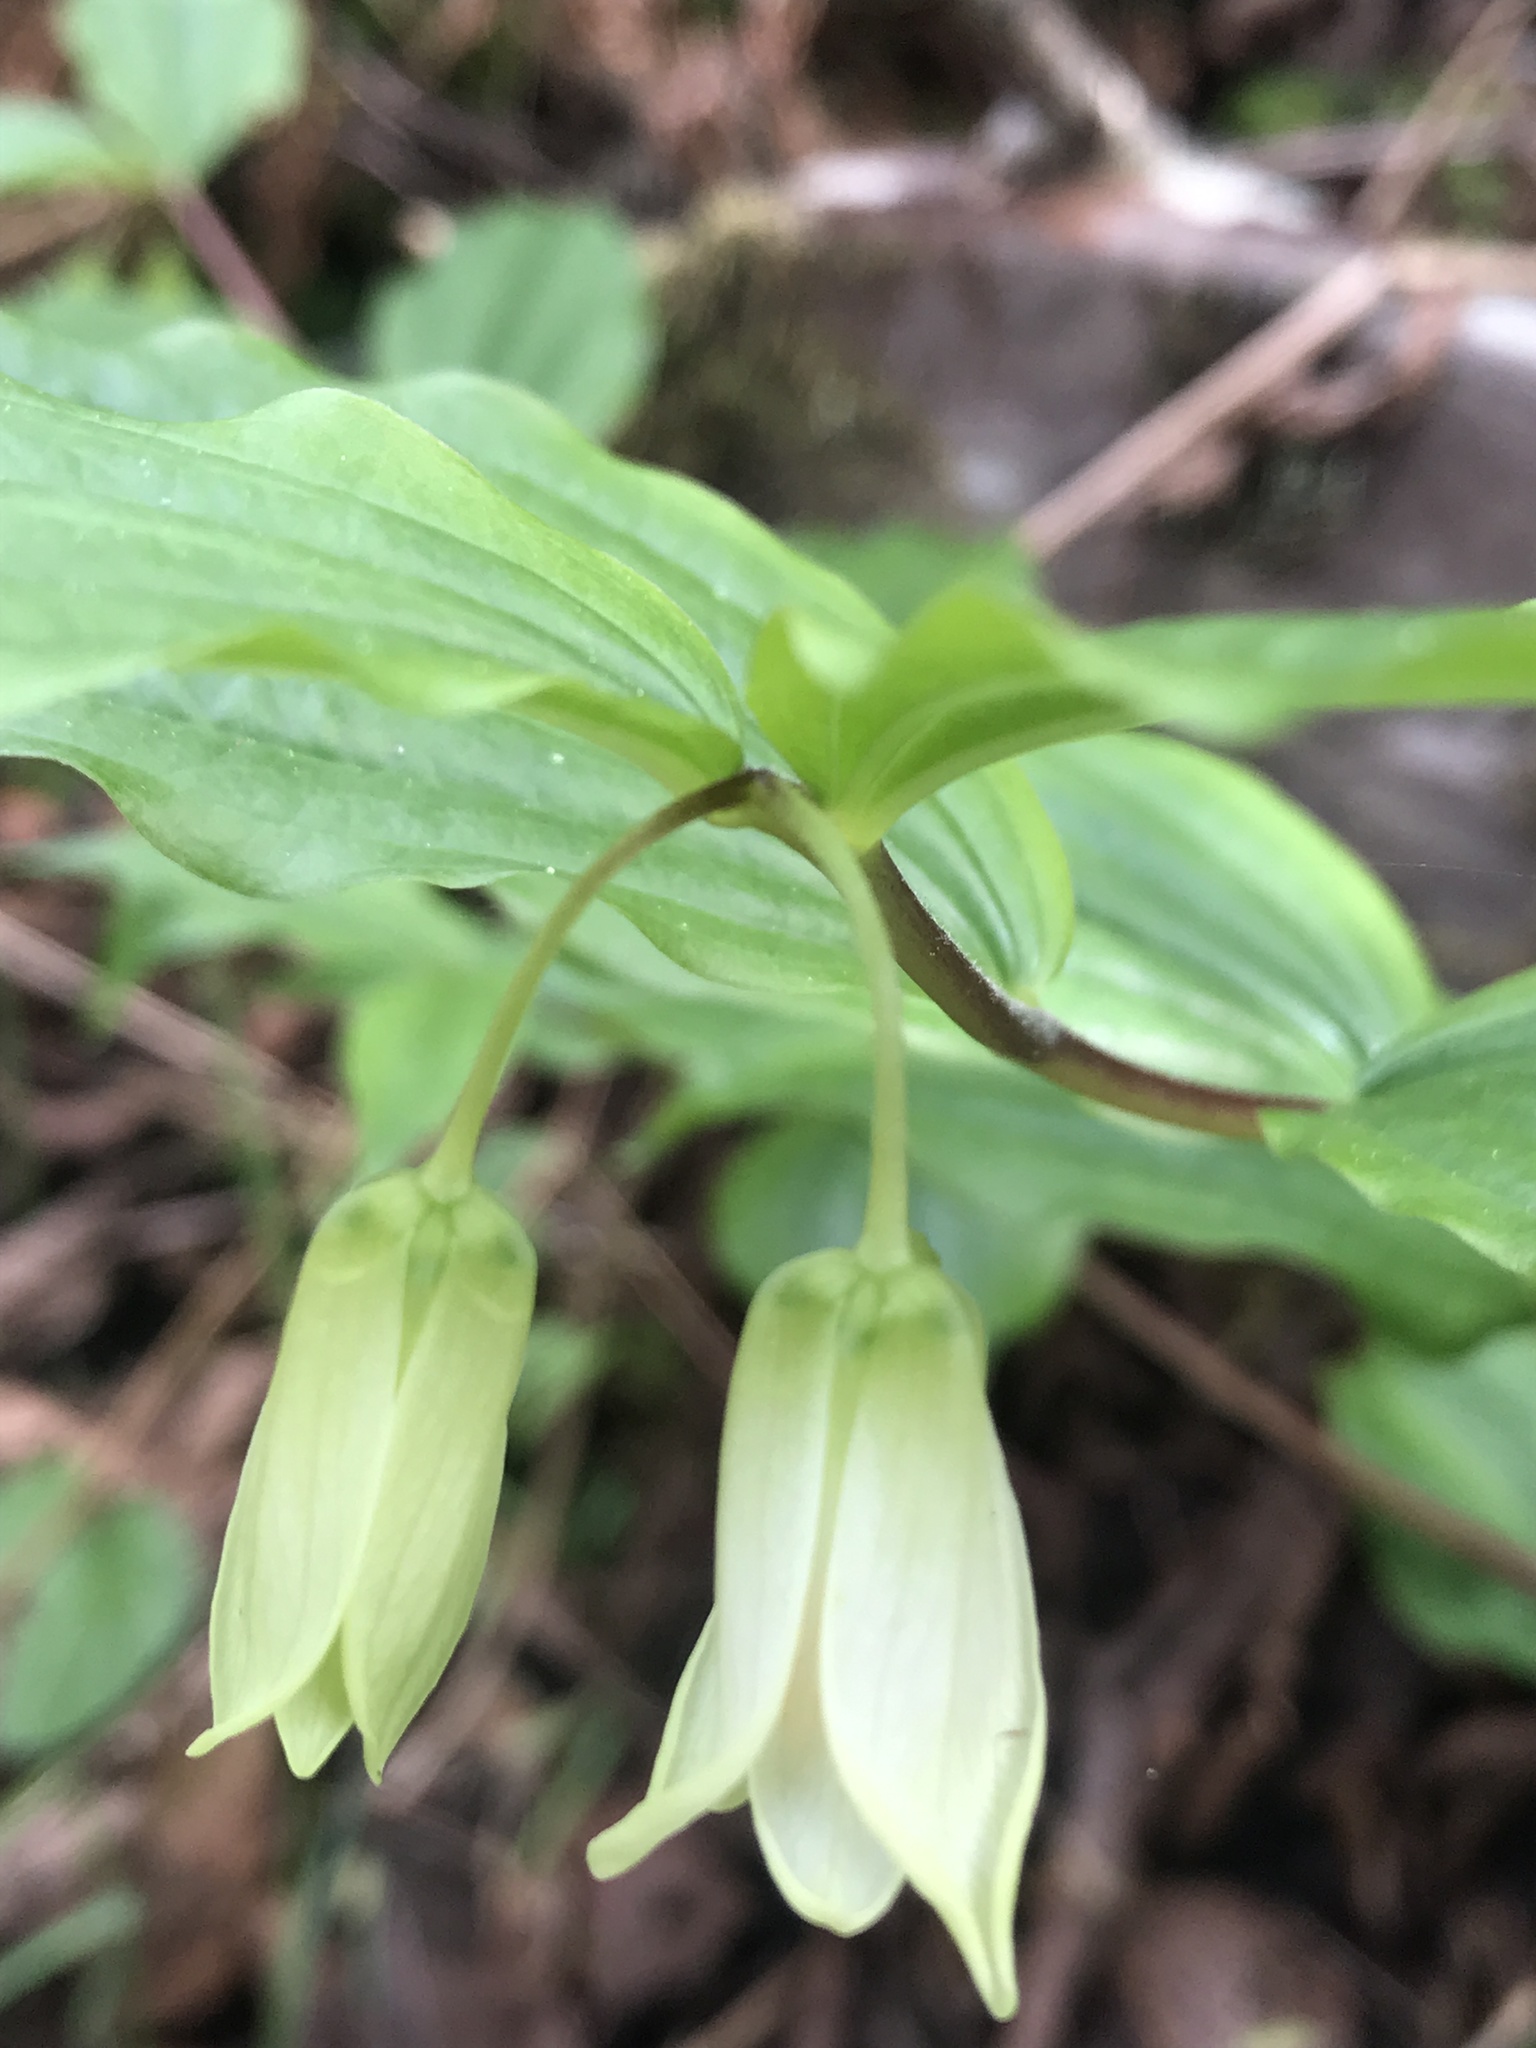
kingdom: Plantae
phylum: Tracheophyta
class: Liliopsida
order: Liliales
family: Liliaceae
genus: Prosartes
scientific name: Prosartes smithii
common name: Fairy-lantern
